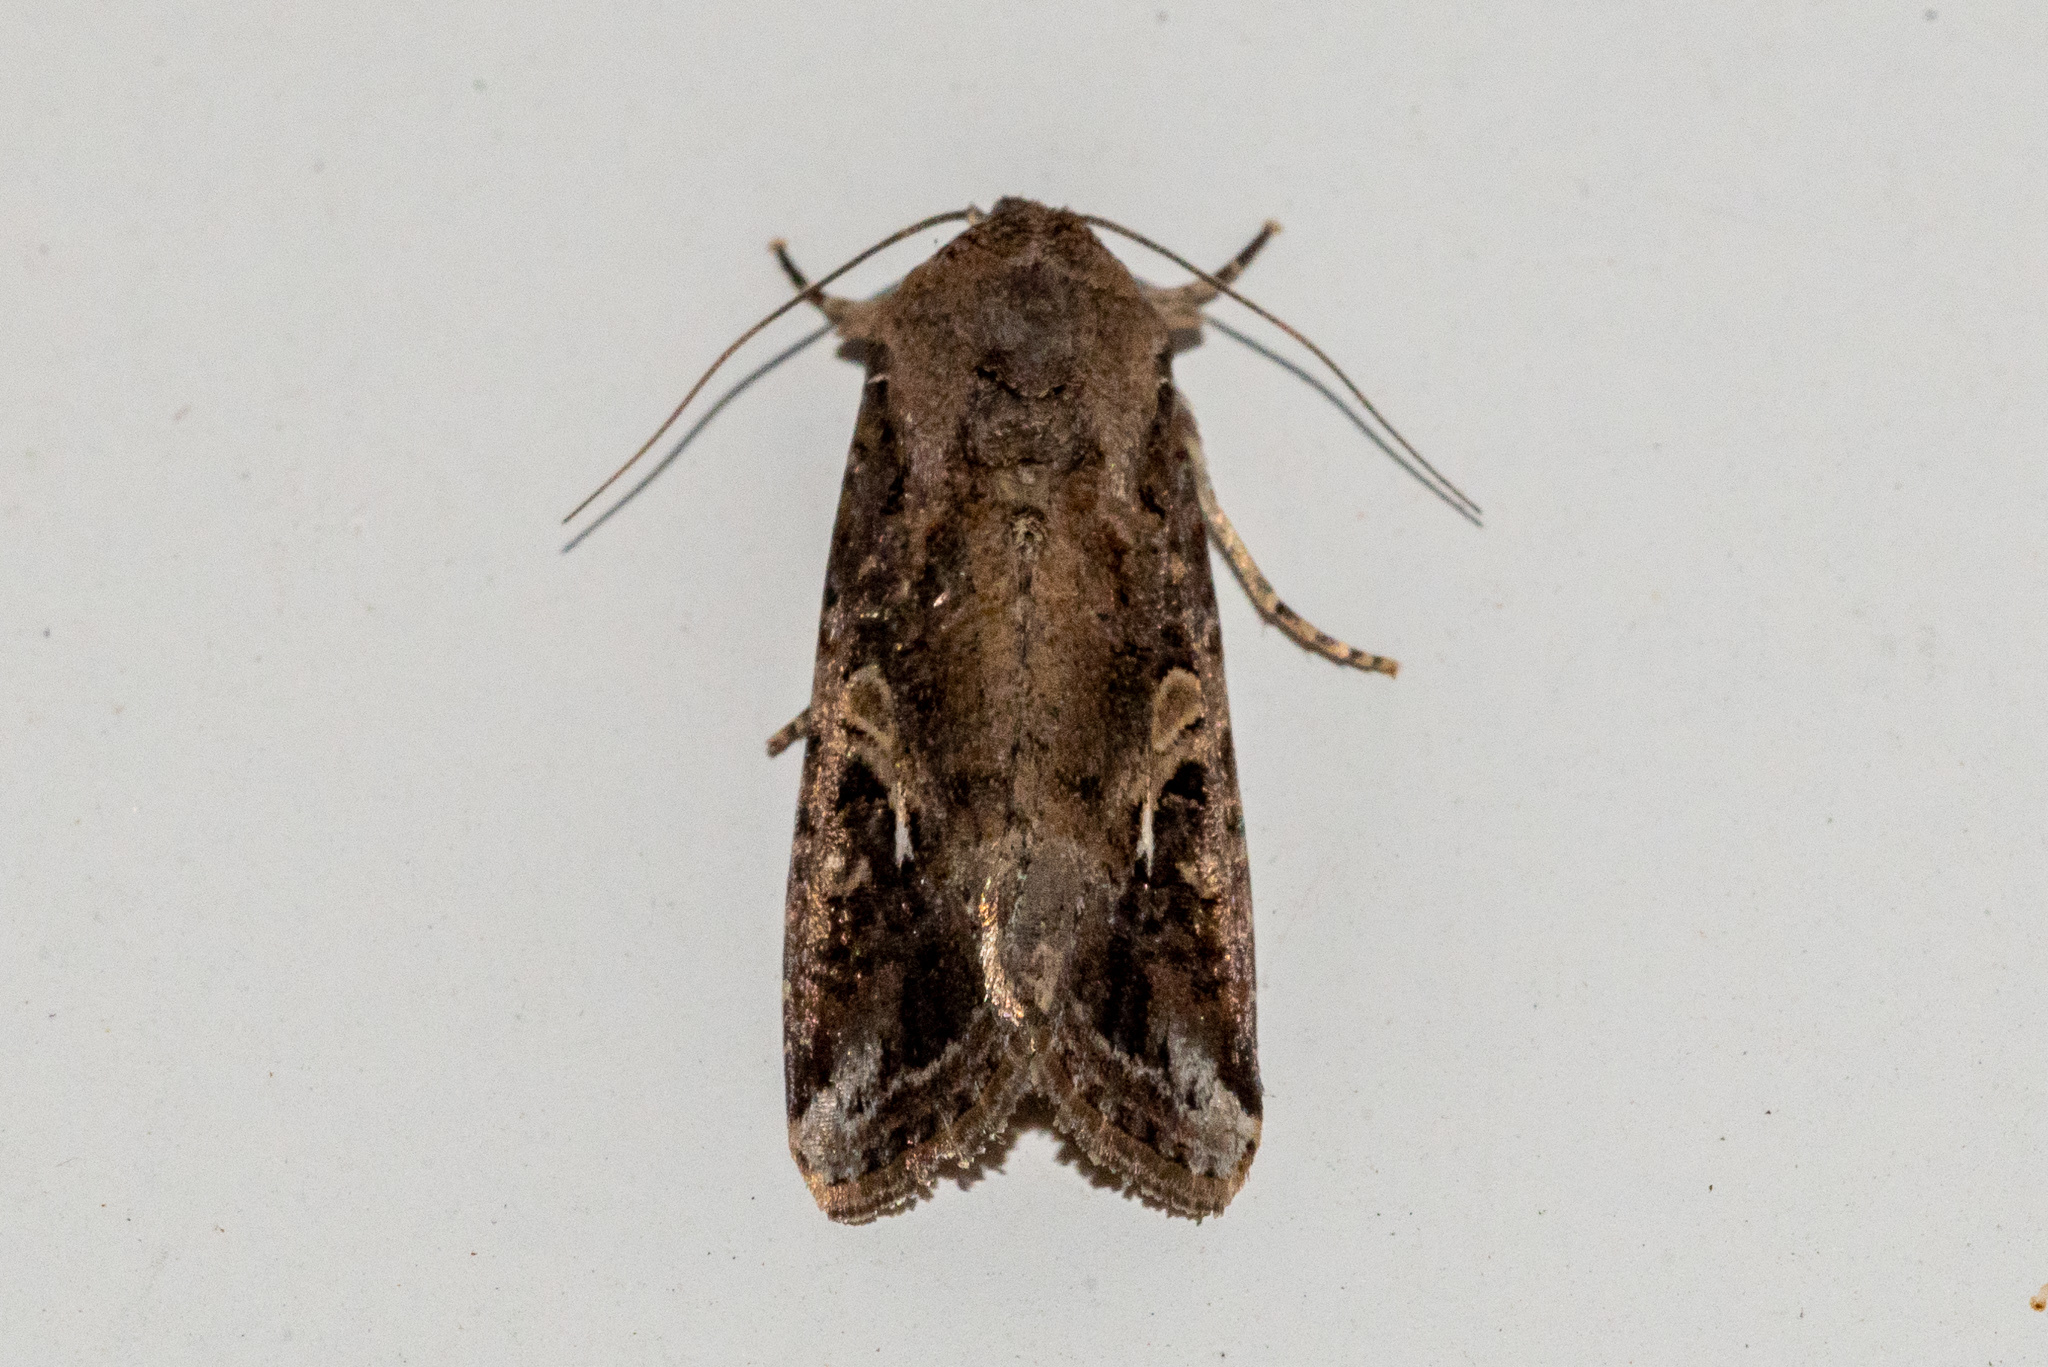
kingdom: Animalia
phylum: Arthropoda
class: Insecta
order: Lepidoptera
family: Noctuidae
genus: Spodoptera
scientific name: Spodoptera frugiperda
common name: Fall armyworm
